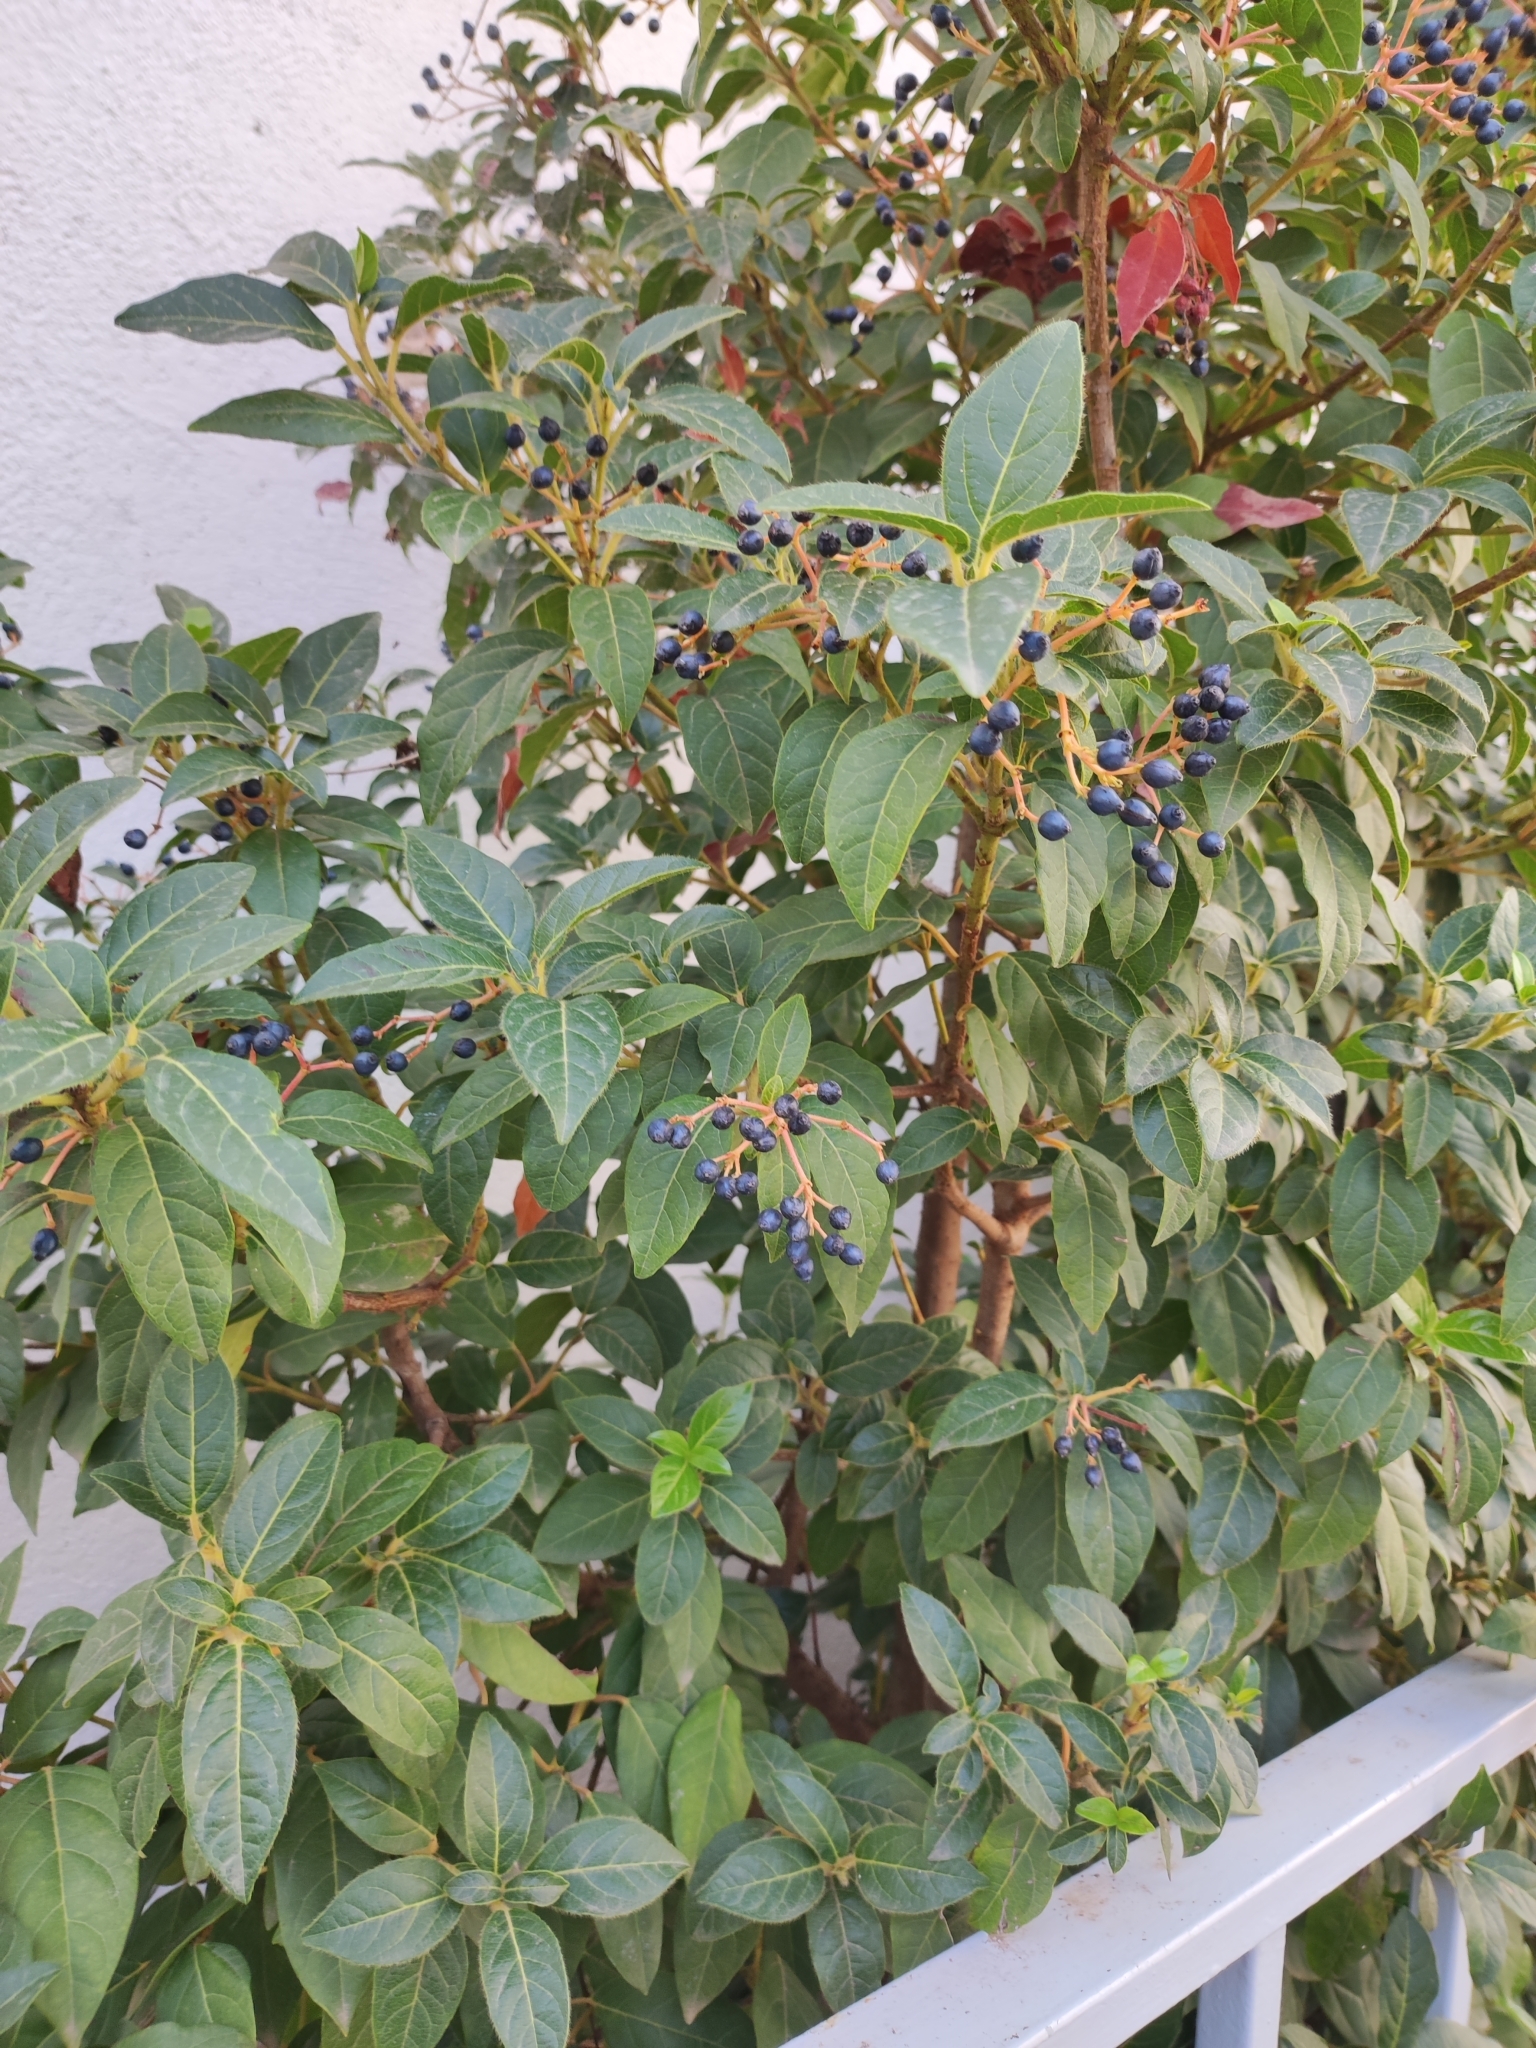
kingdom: Plantae
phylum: Tracheophyta
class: Magnoliopsida
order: Dipsacales
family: Viburnaceae
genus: Viburnum
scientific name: Viburnum tinus
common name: Laurustinus
